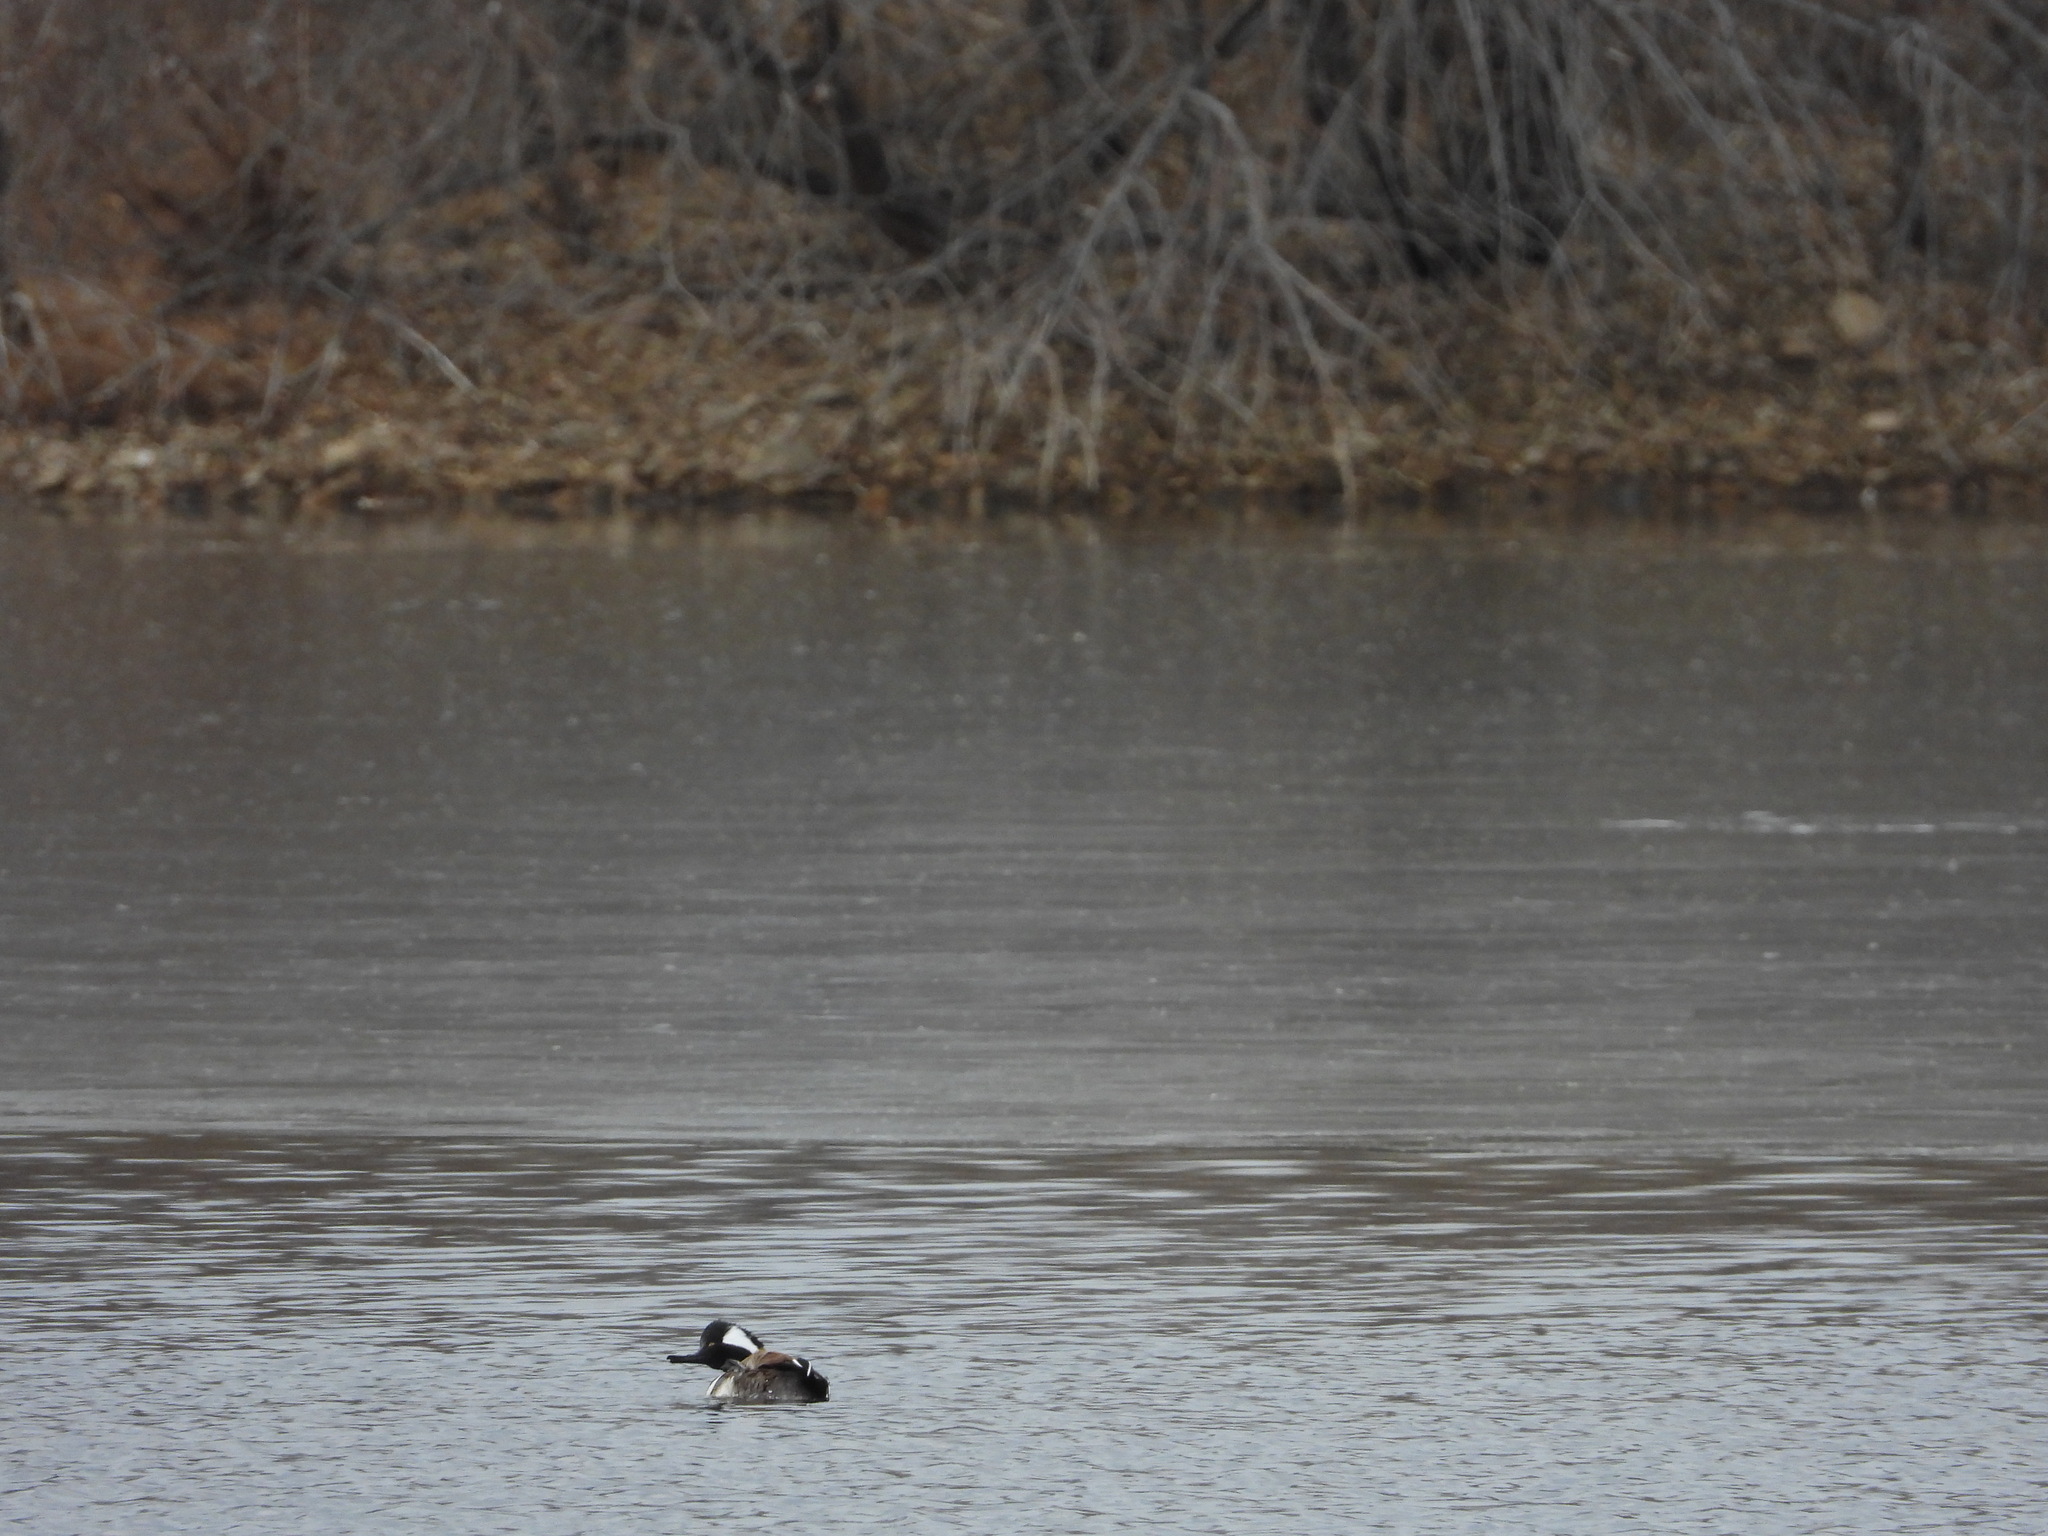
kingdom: Animalia
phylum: Chordata
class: Aves
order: Anseriformes
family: Anatidae
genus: Lophodytes
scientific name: Lophodytes cucullatus
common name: Hooded merganser
